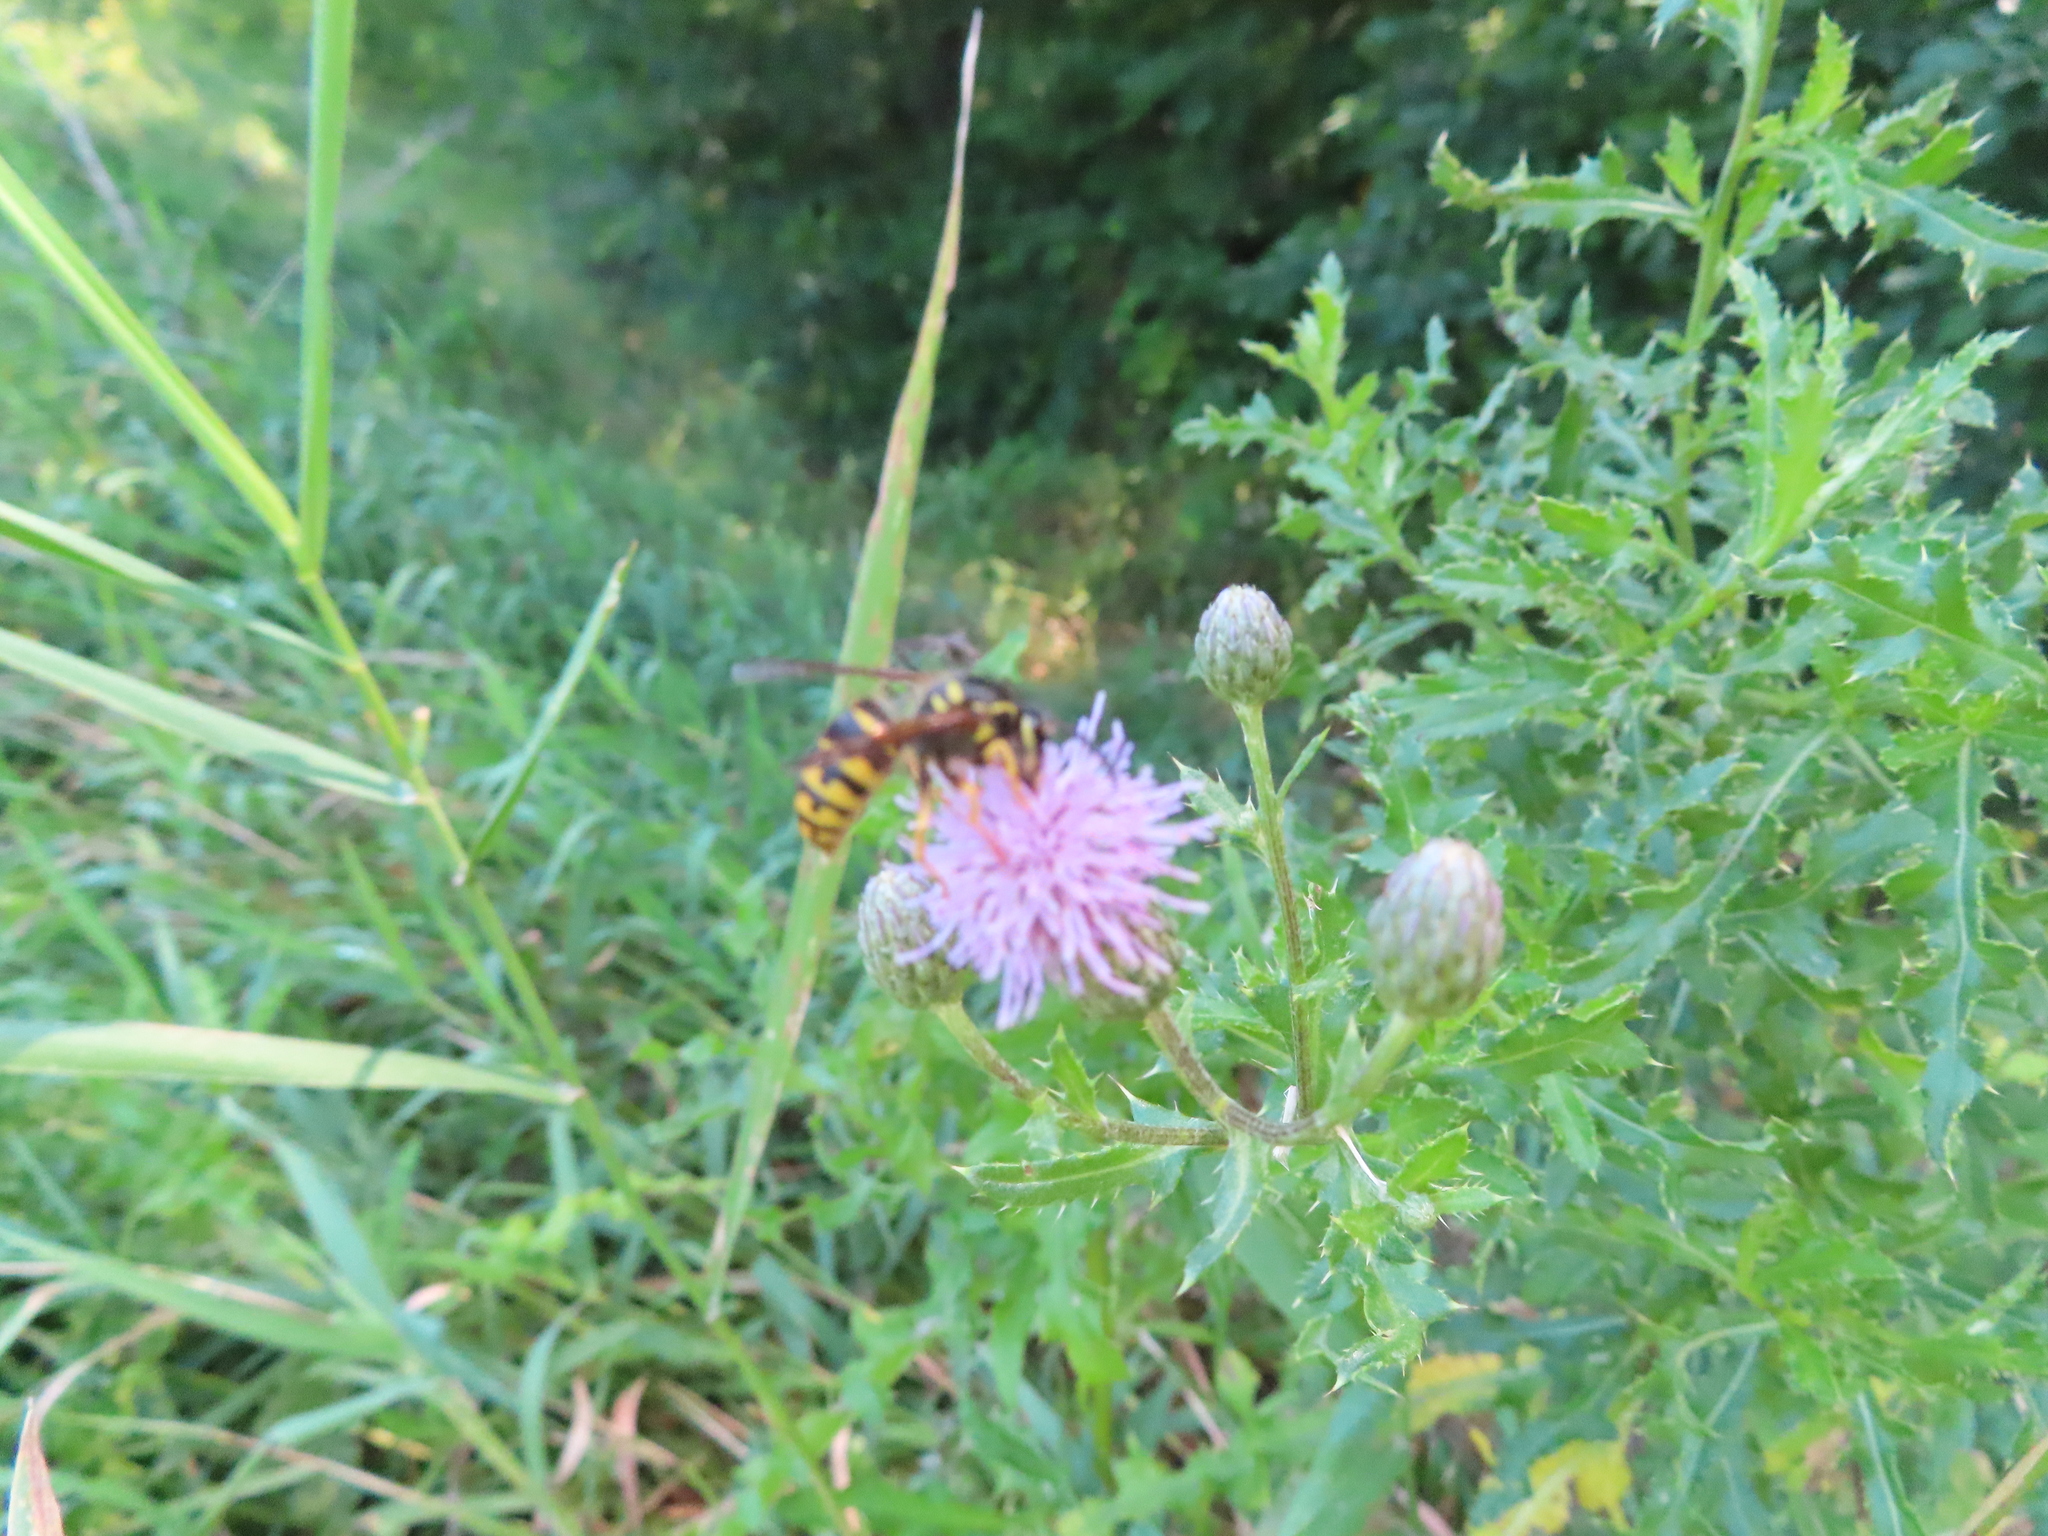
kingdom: Animalia
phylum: Arthropoda
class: Insecta
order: Hymenoptera
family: Vespidae
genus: Dolichovespula
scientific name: Dolichovespula arenaria
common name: Aerial yellowjacket
